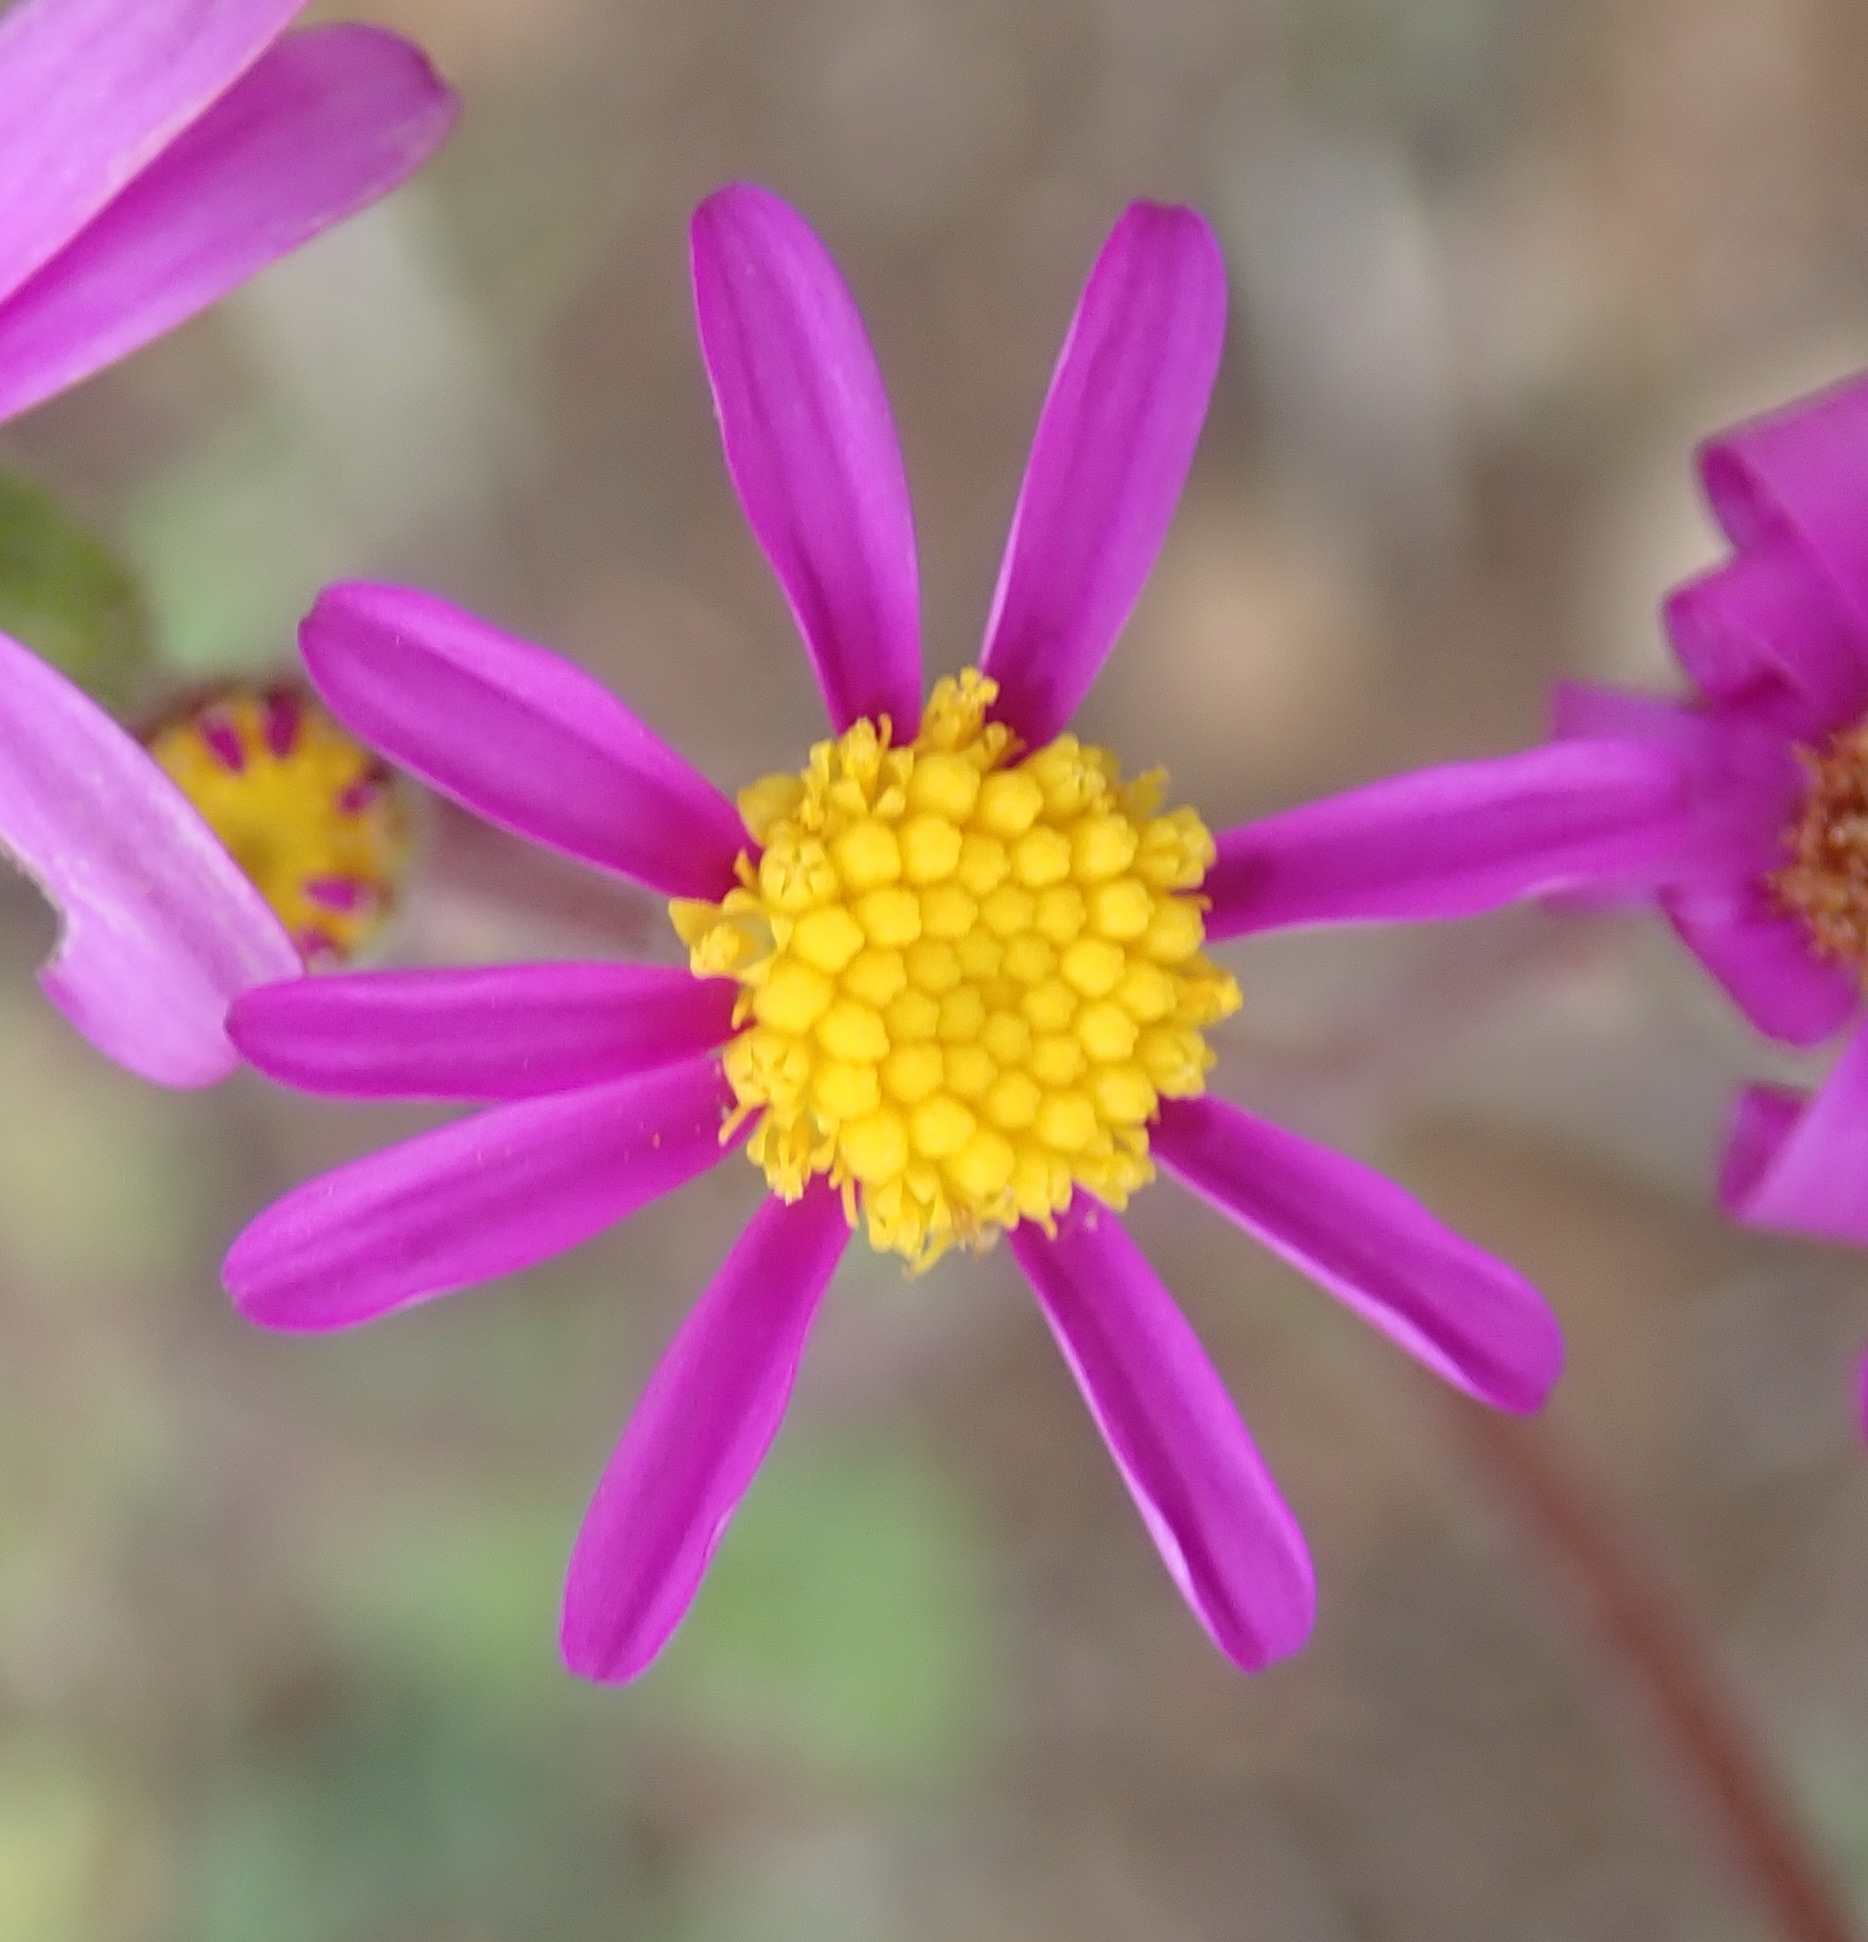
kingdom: Plantae
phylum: Tracheophyta
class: Magnoliopsida
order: Asterales
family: Asteraceae
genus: Senecio
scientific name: Senecio arenarius
